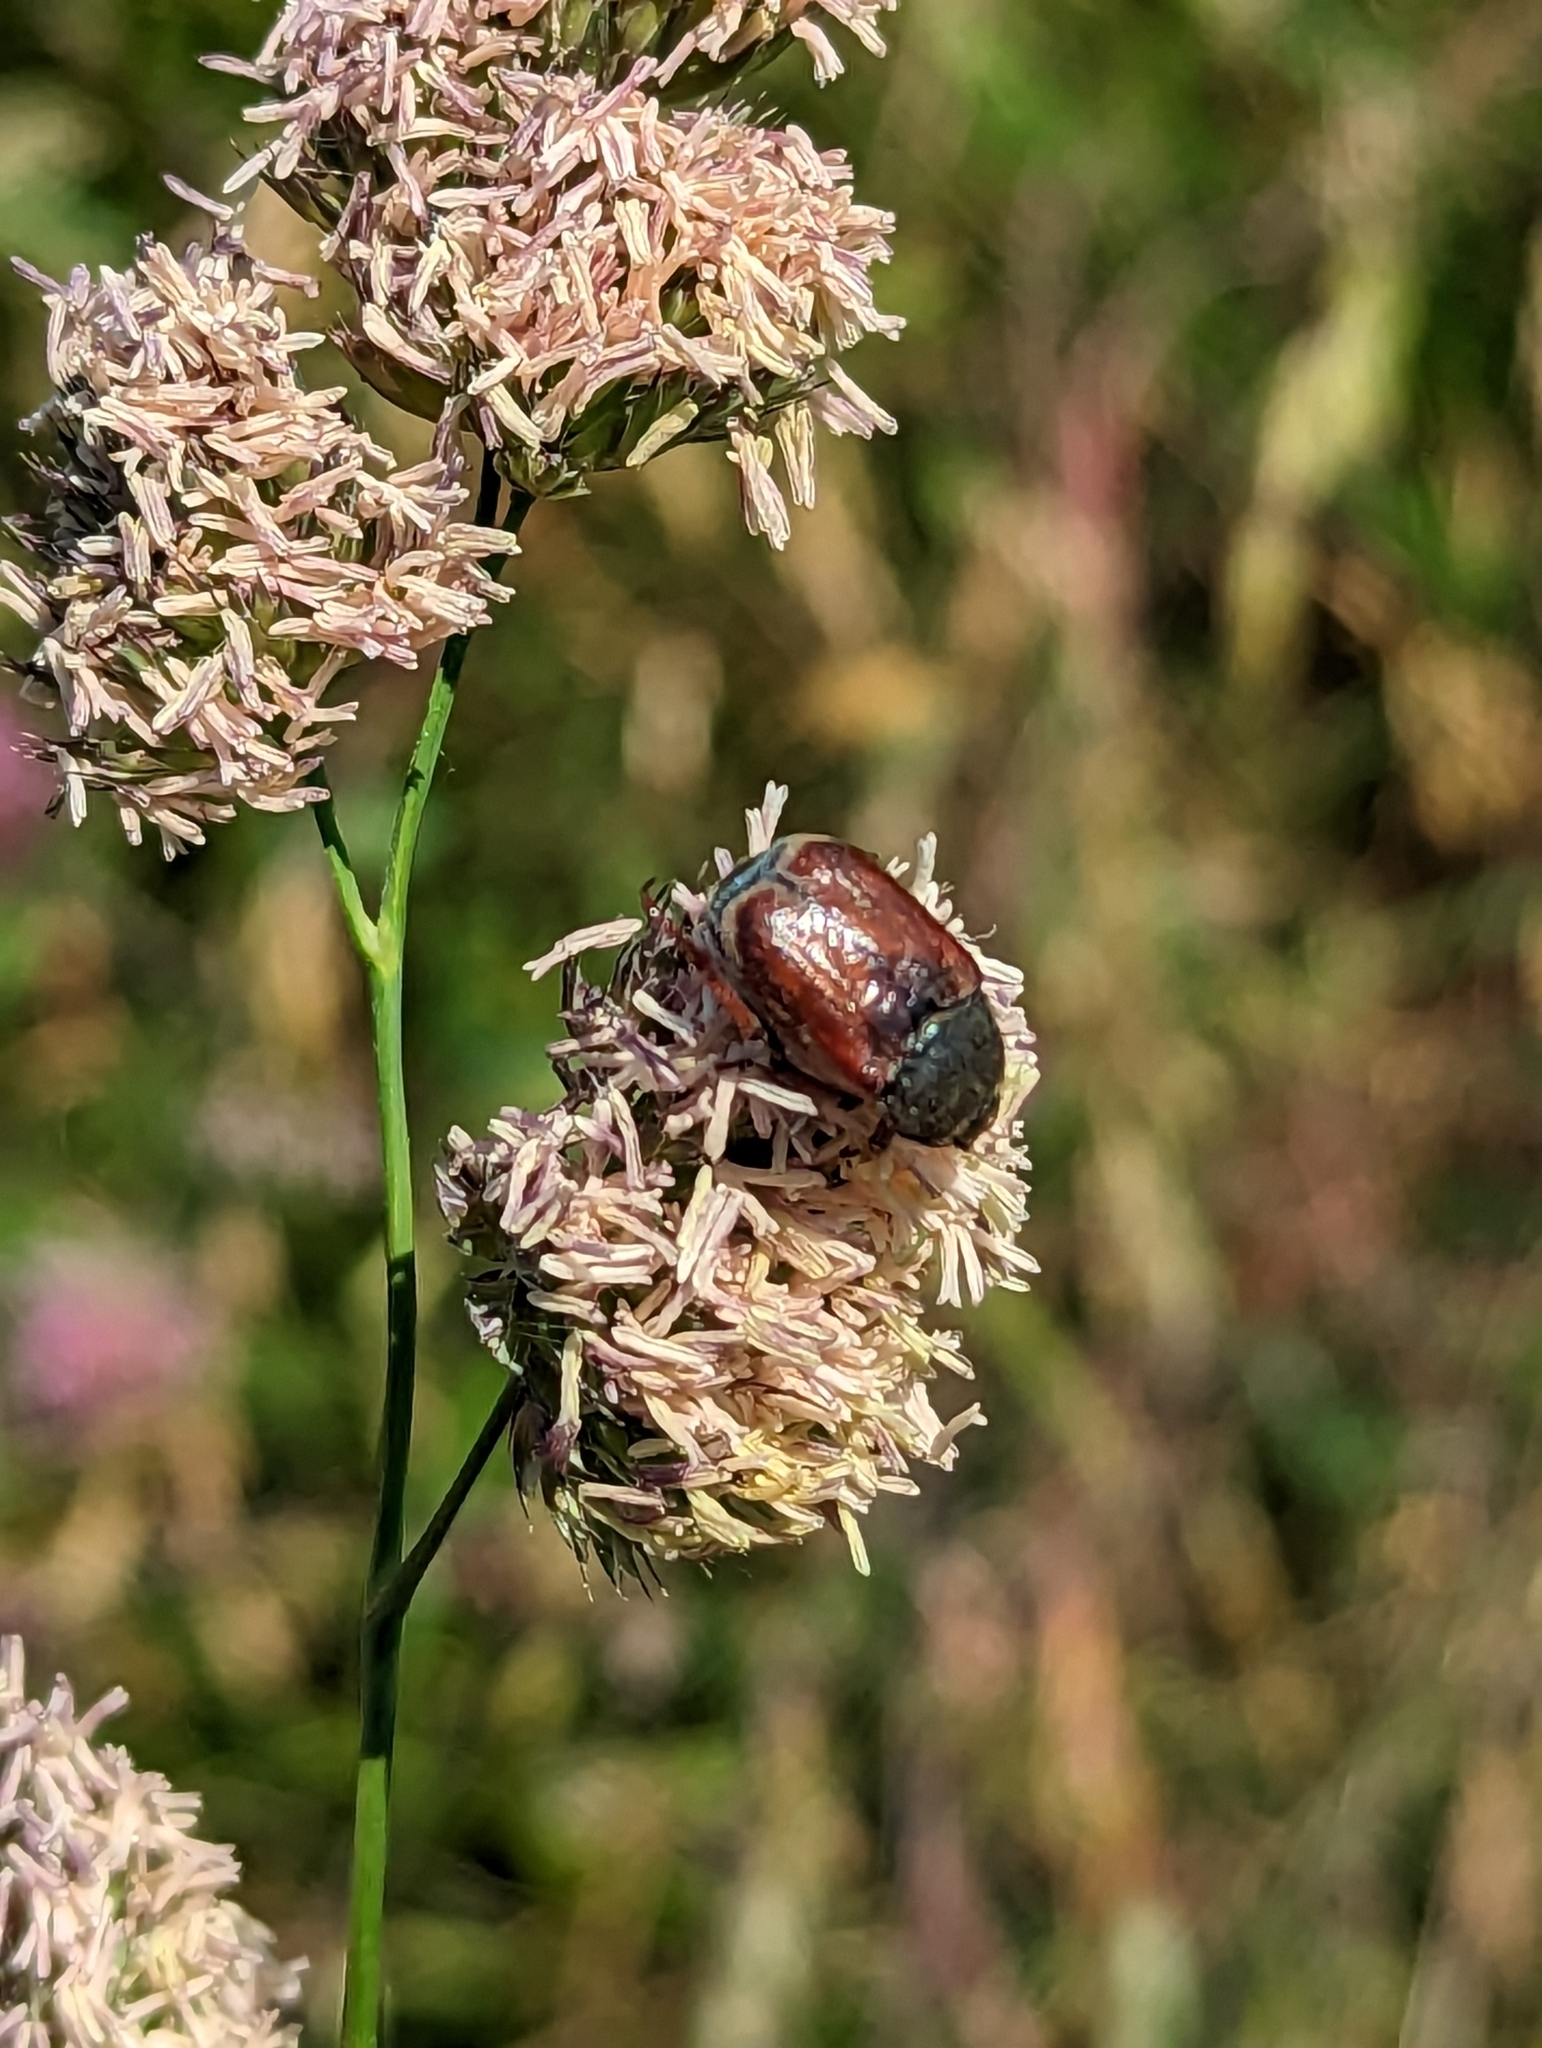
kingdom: Animalia
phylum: Arthropoda
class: Insecta
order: Coleoptera
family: Scarabaeidae
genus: Hoplia
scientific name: Hoplia philanthus
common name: Welsh chafer
